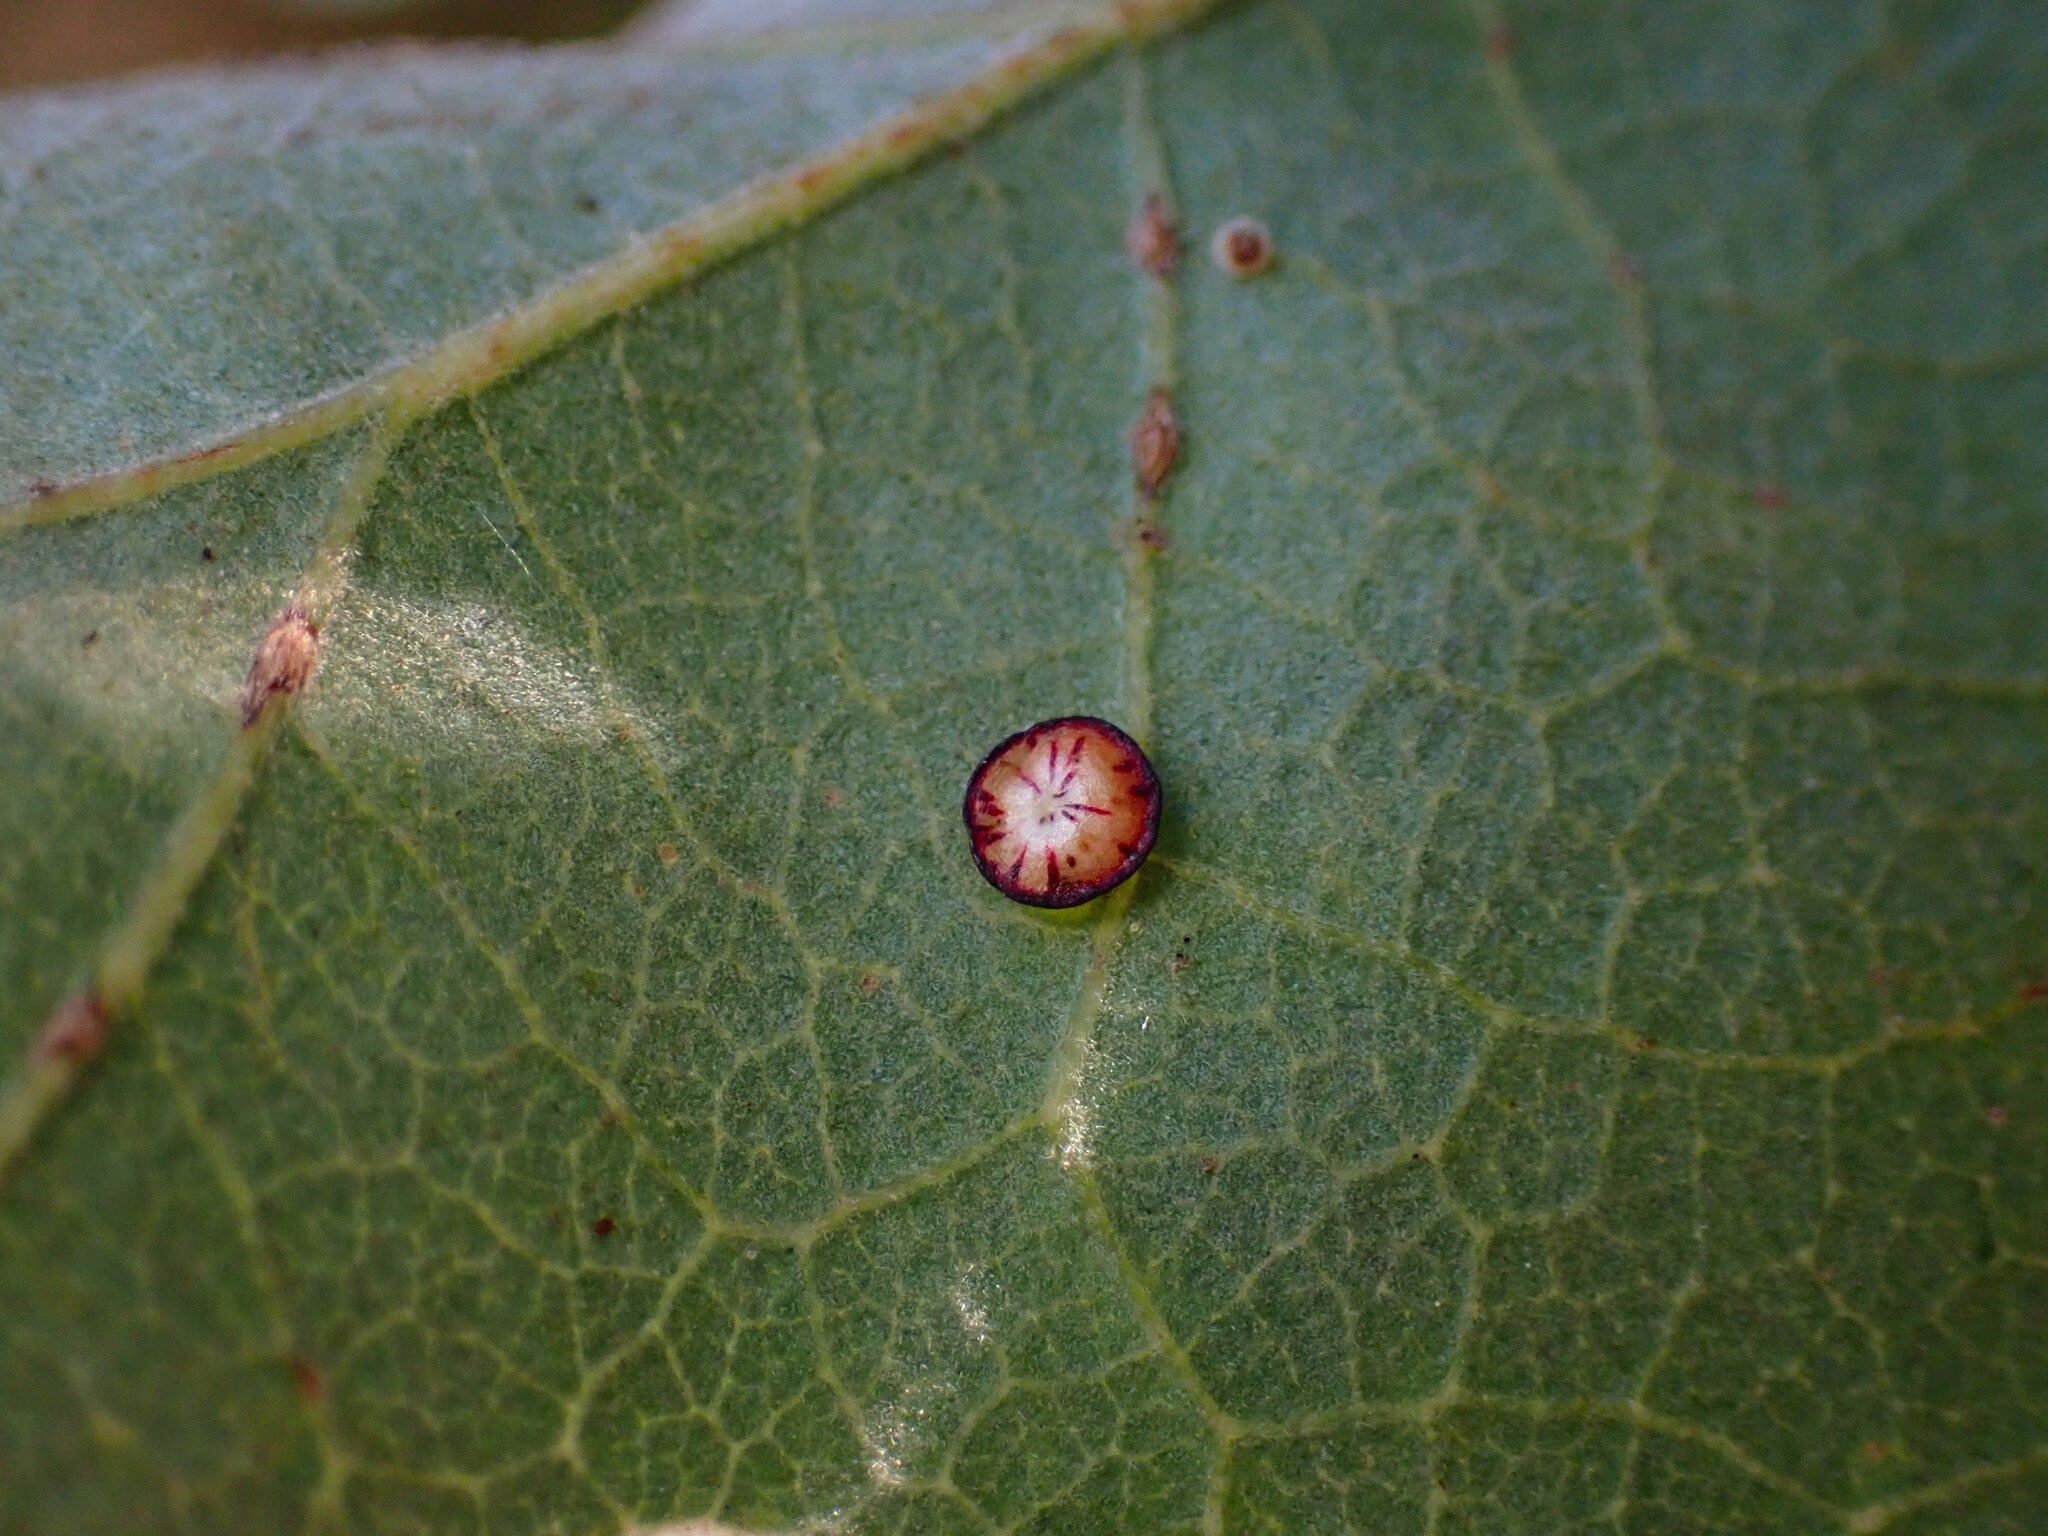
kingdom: Animalia
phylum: Arthropoda
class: Insecta
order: Hymenoptera
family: Cynipidae
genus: Andricus
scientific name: Andricus
